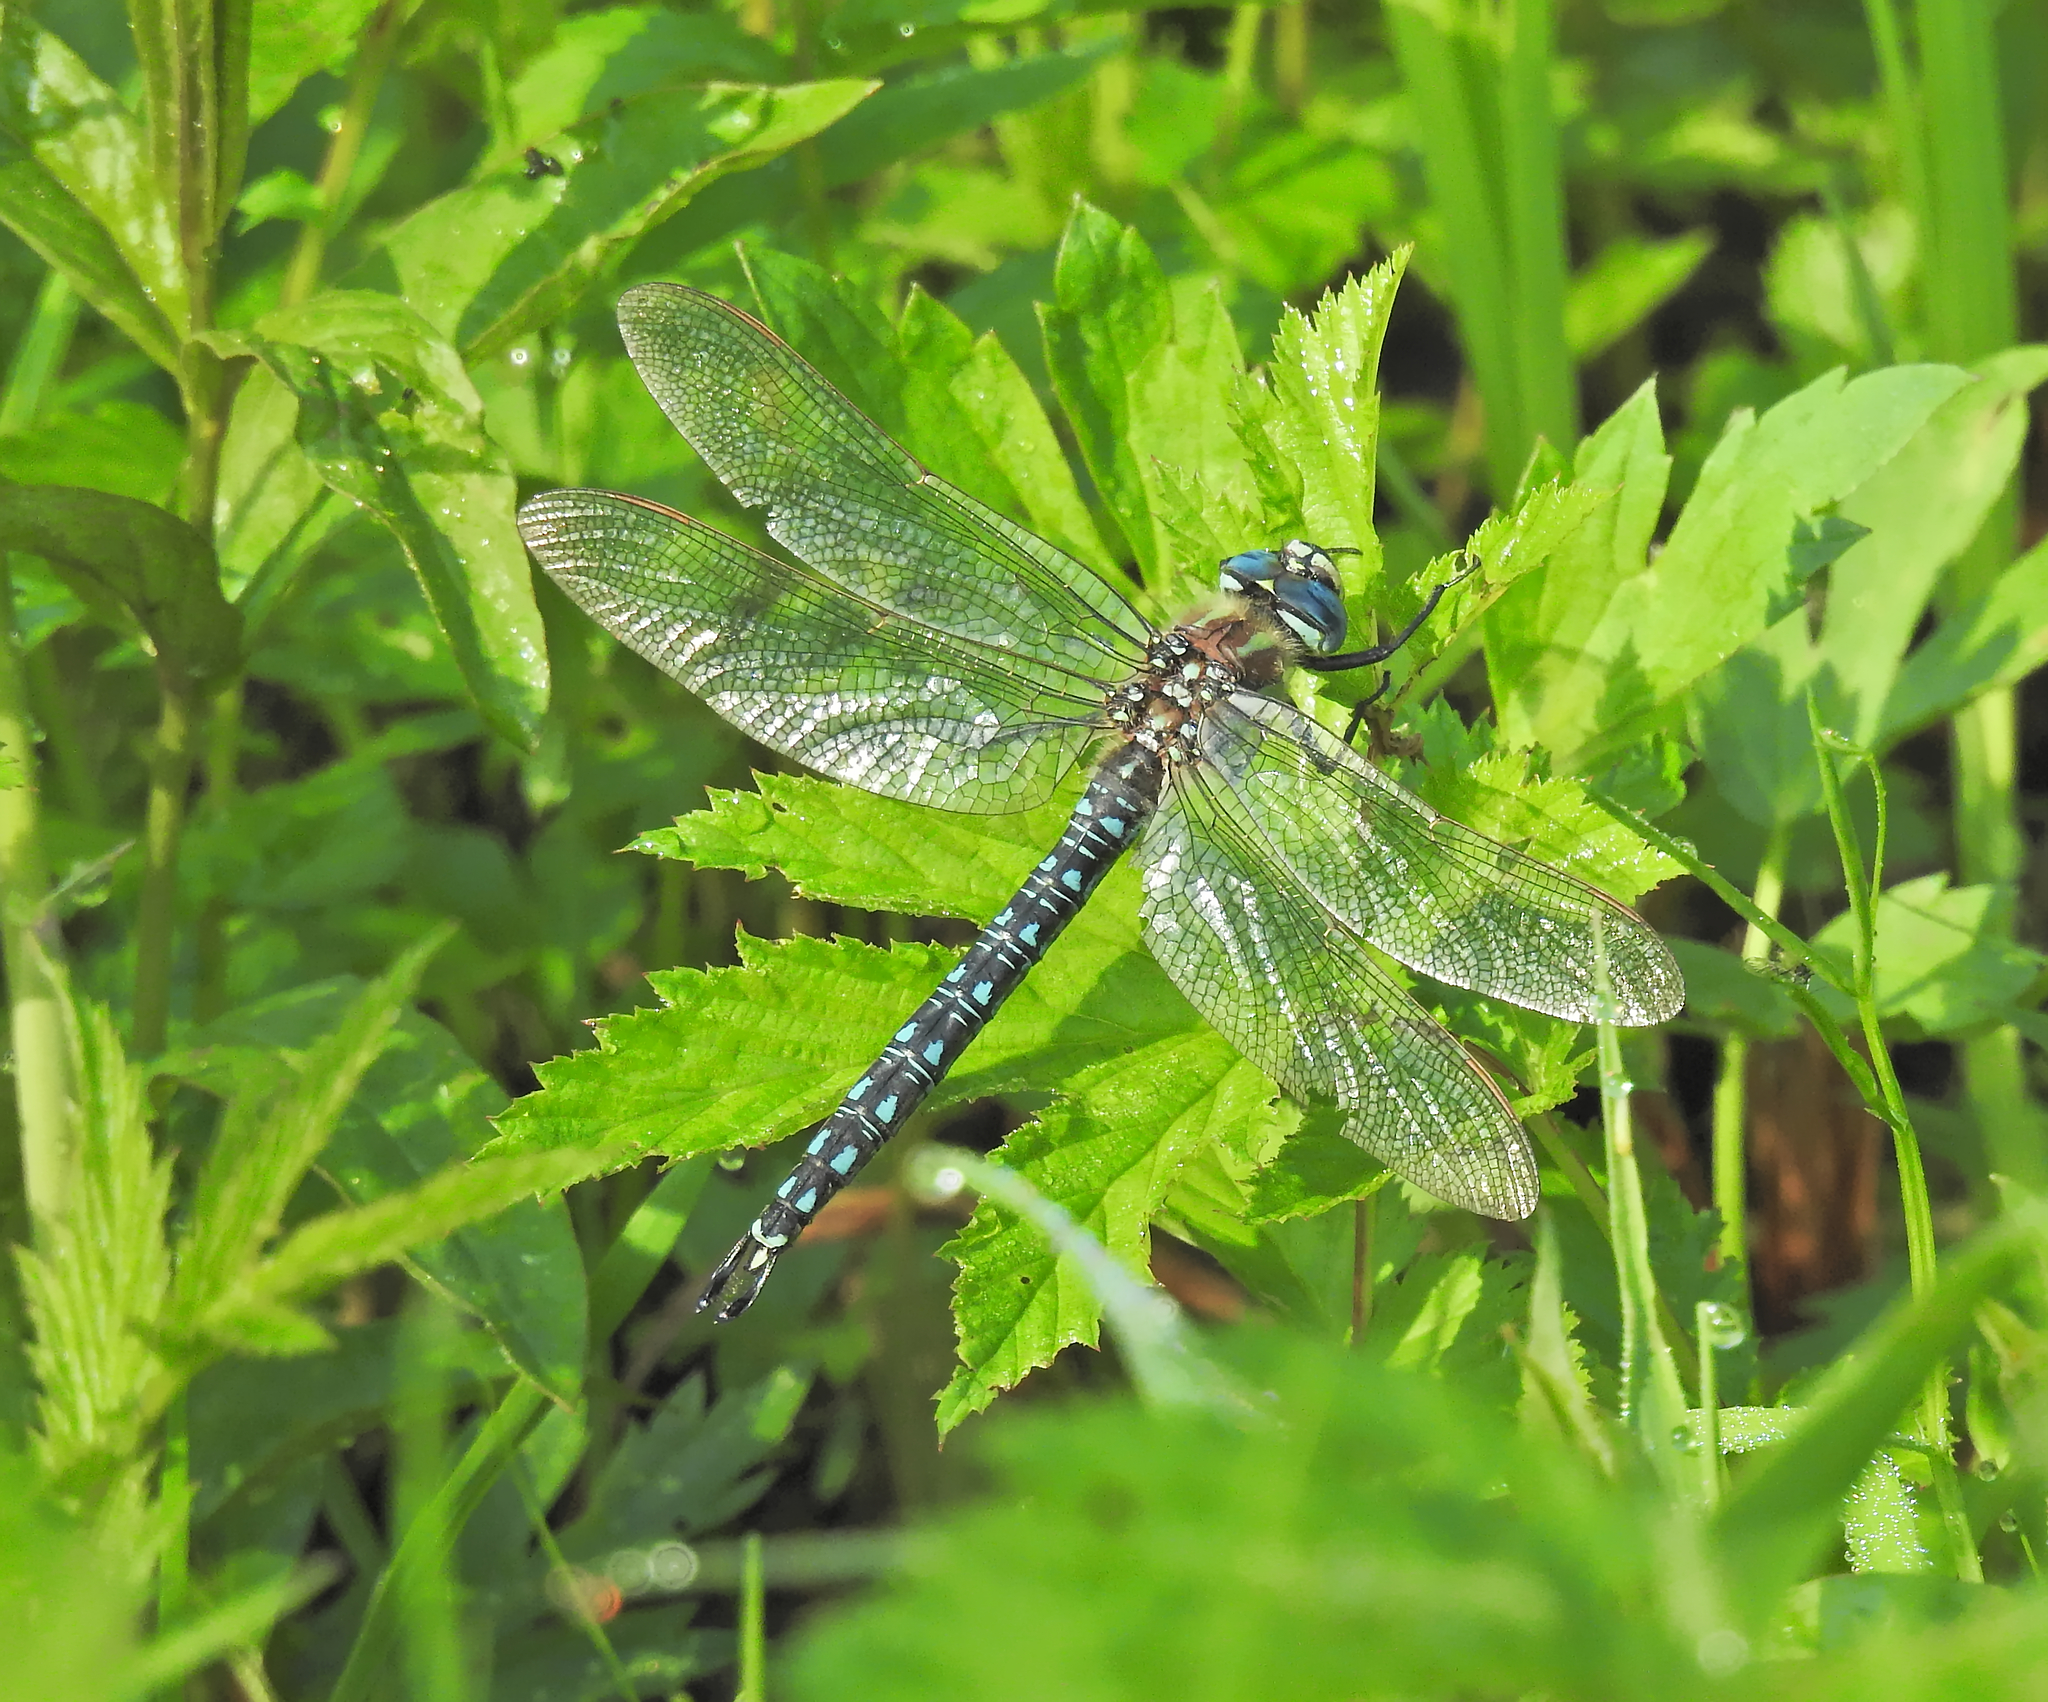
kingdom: Animalia
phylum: Arthropoda
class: Insecta
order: Odonata
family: Aeshnidae
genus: Brachytron
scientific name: Brachytron pratense
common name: Hairy hawker
